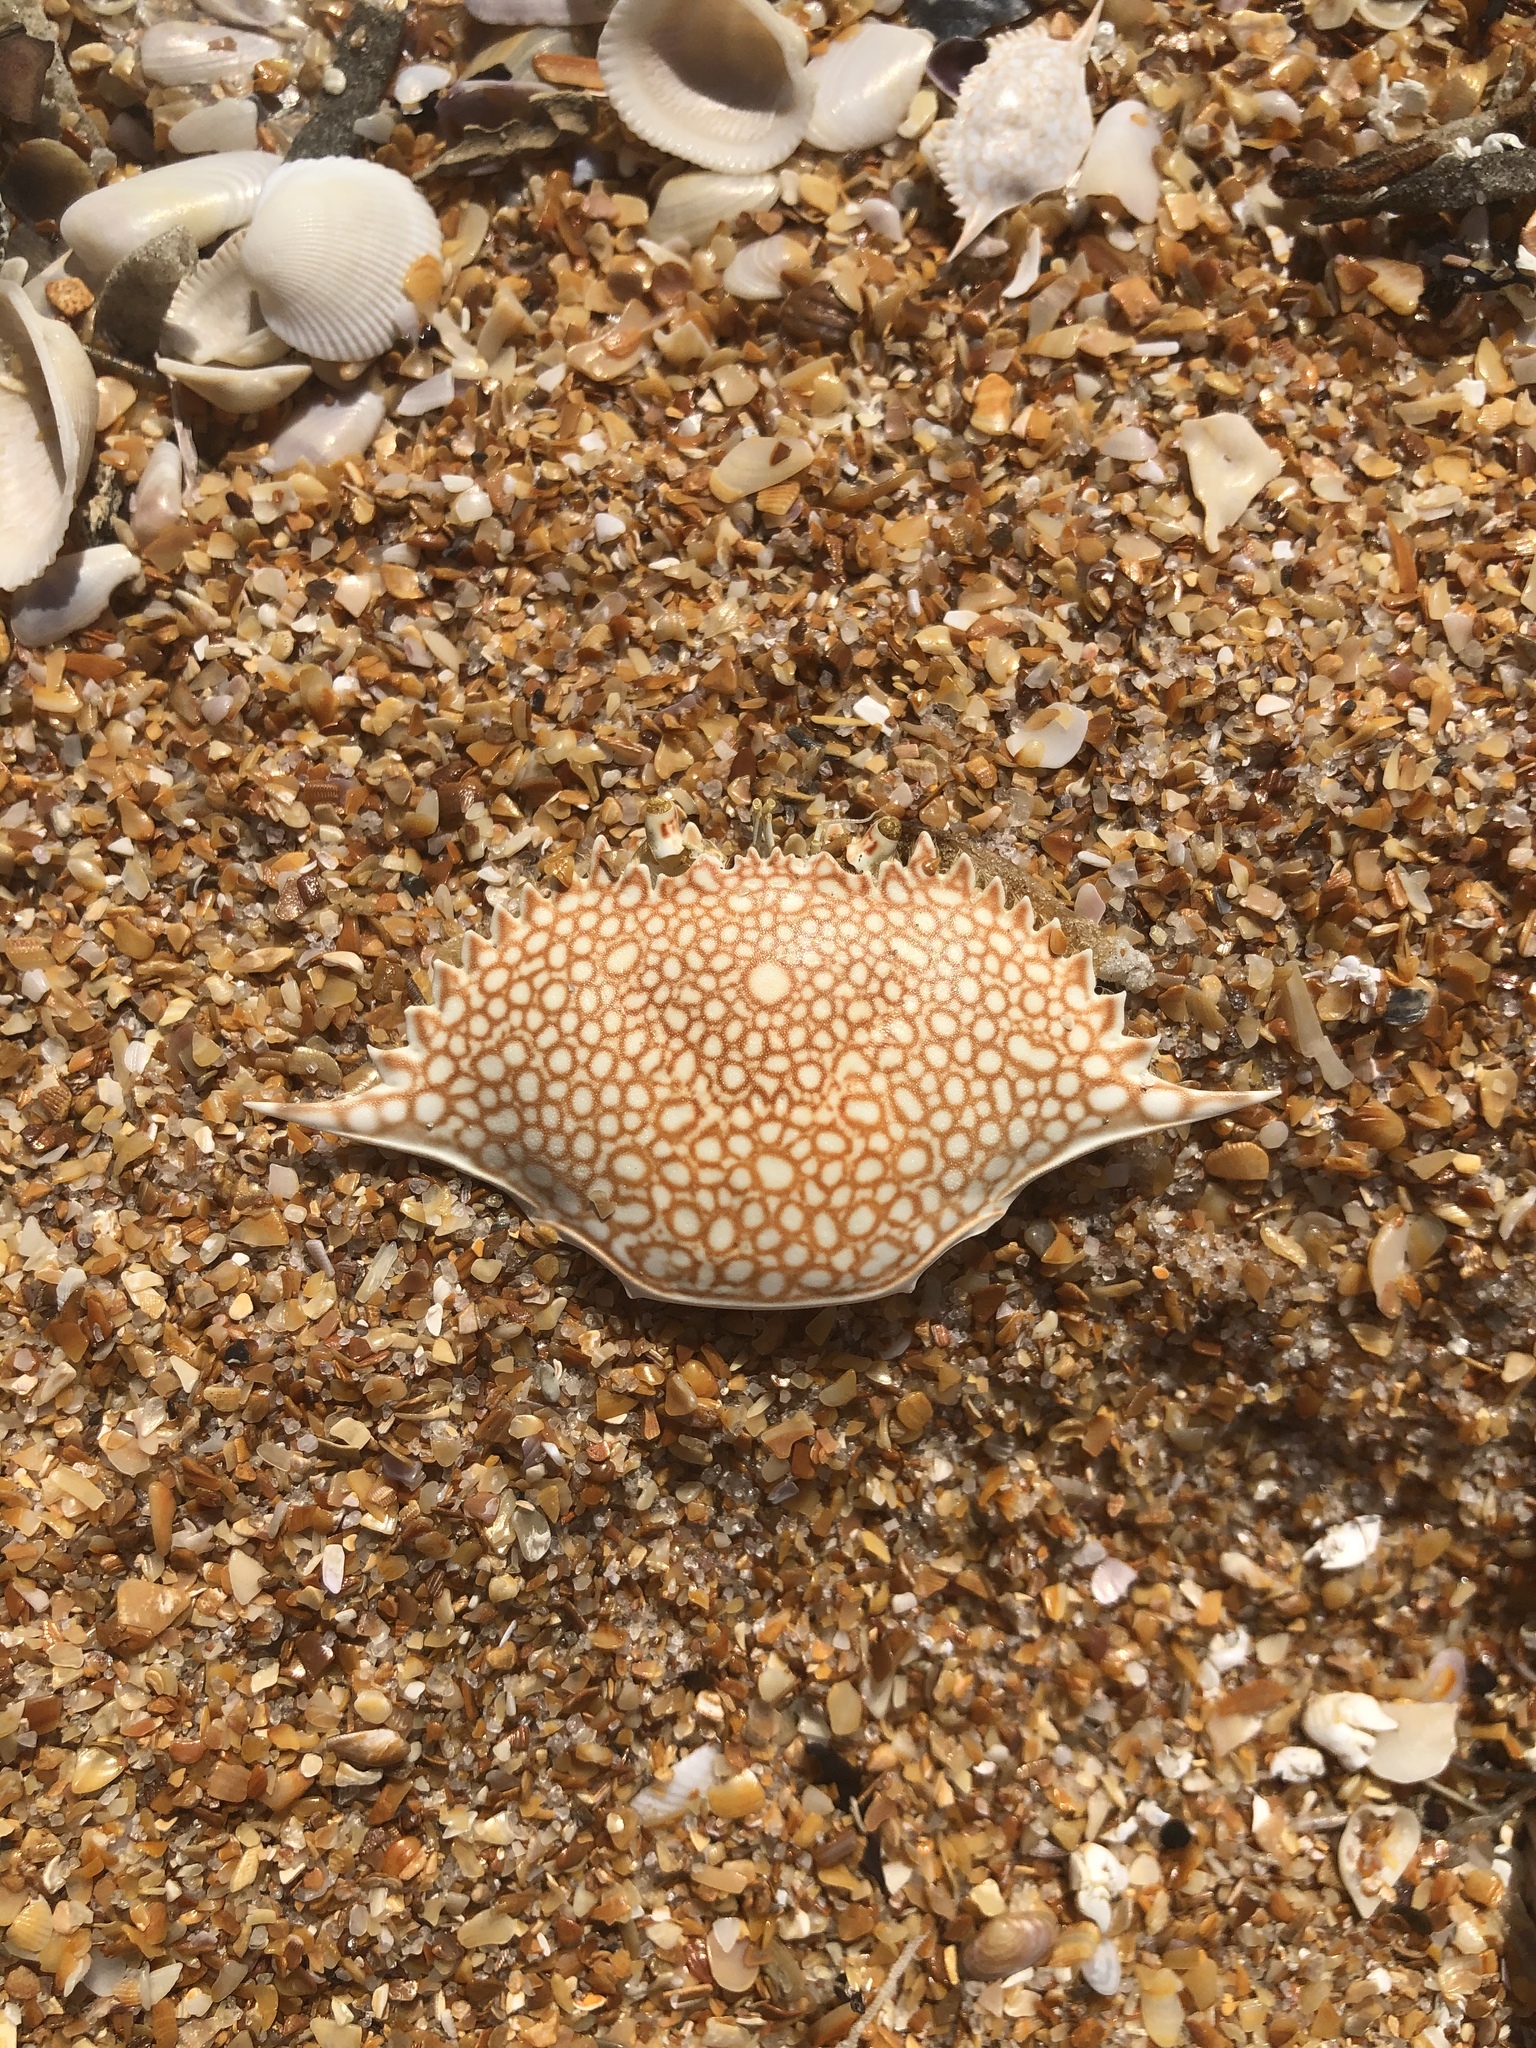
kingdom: Animalia
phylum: Arthropoda
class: Malacostraca
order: Decapoda
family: Portunidae
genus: Arenaeus
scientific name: Arenaeus cribrarius
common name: Speckled crab
